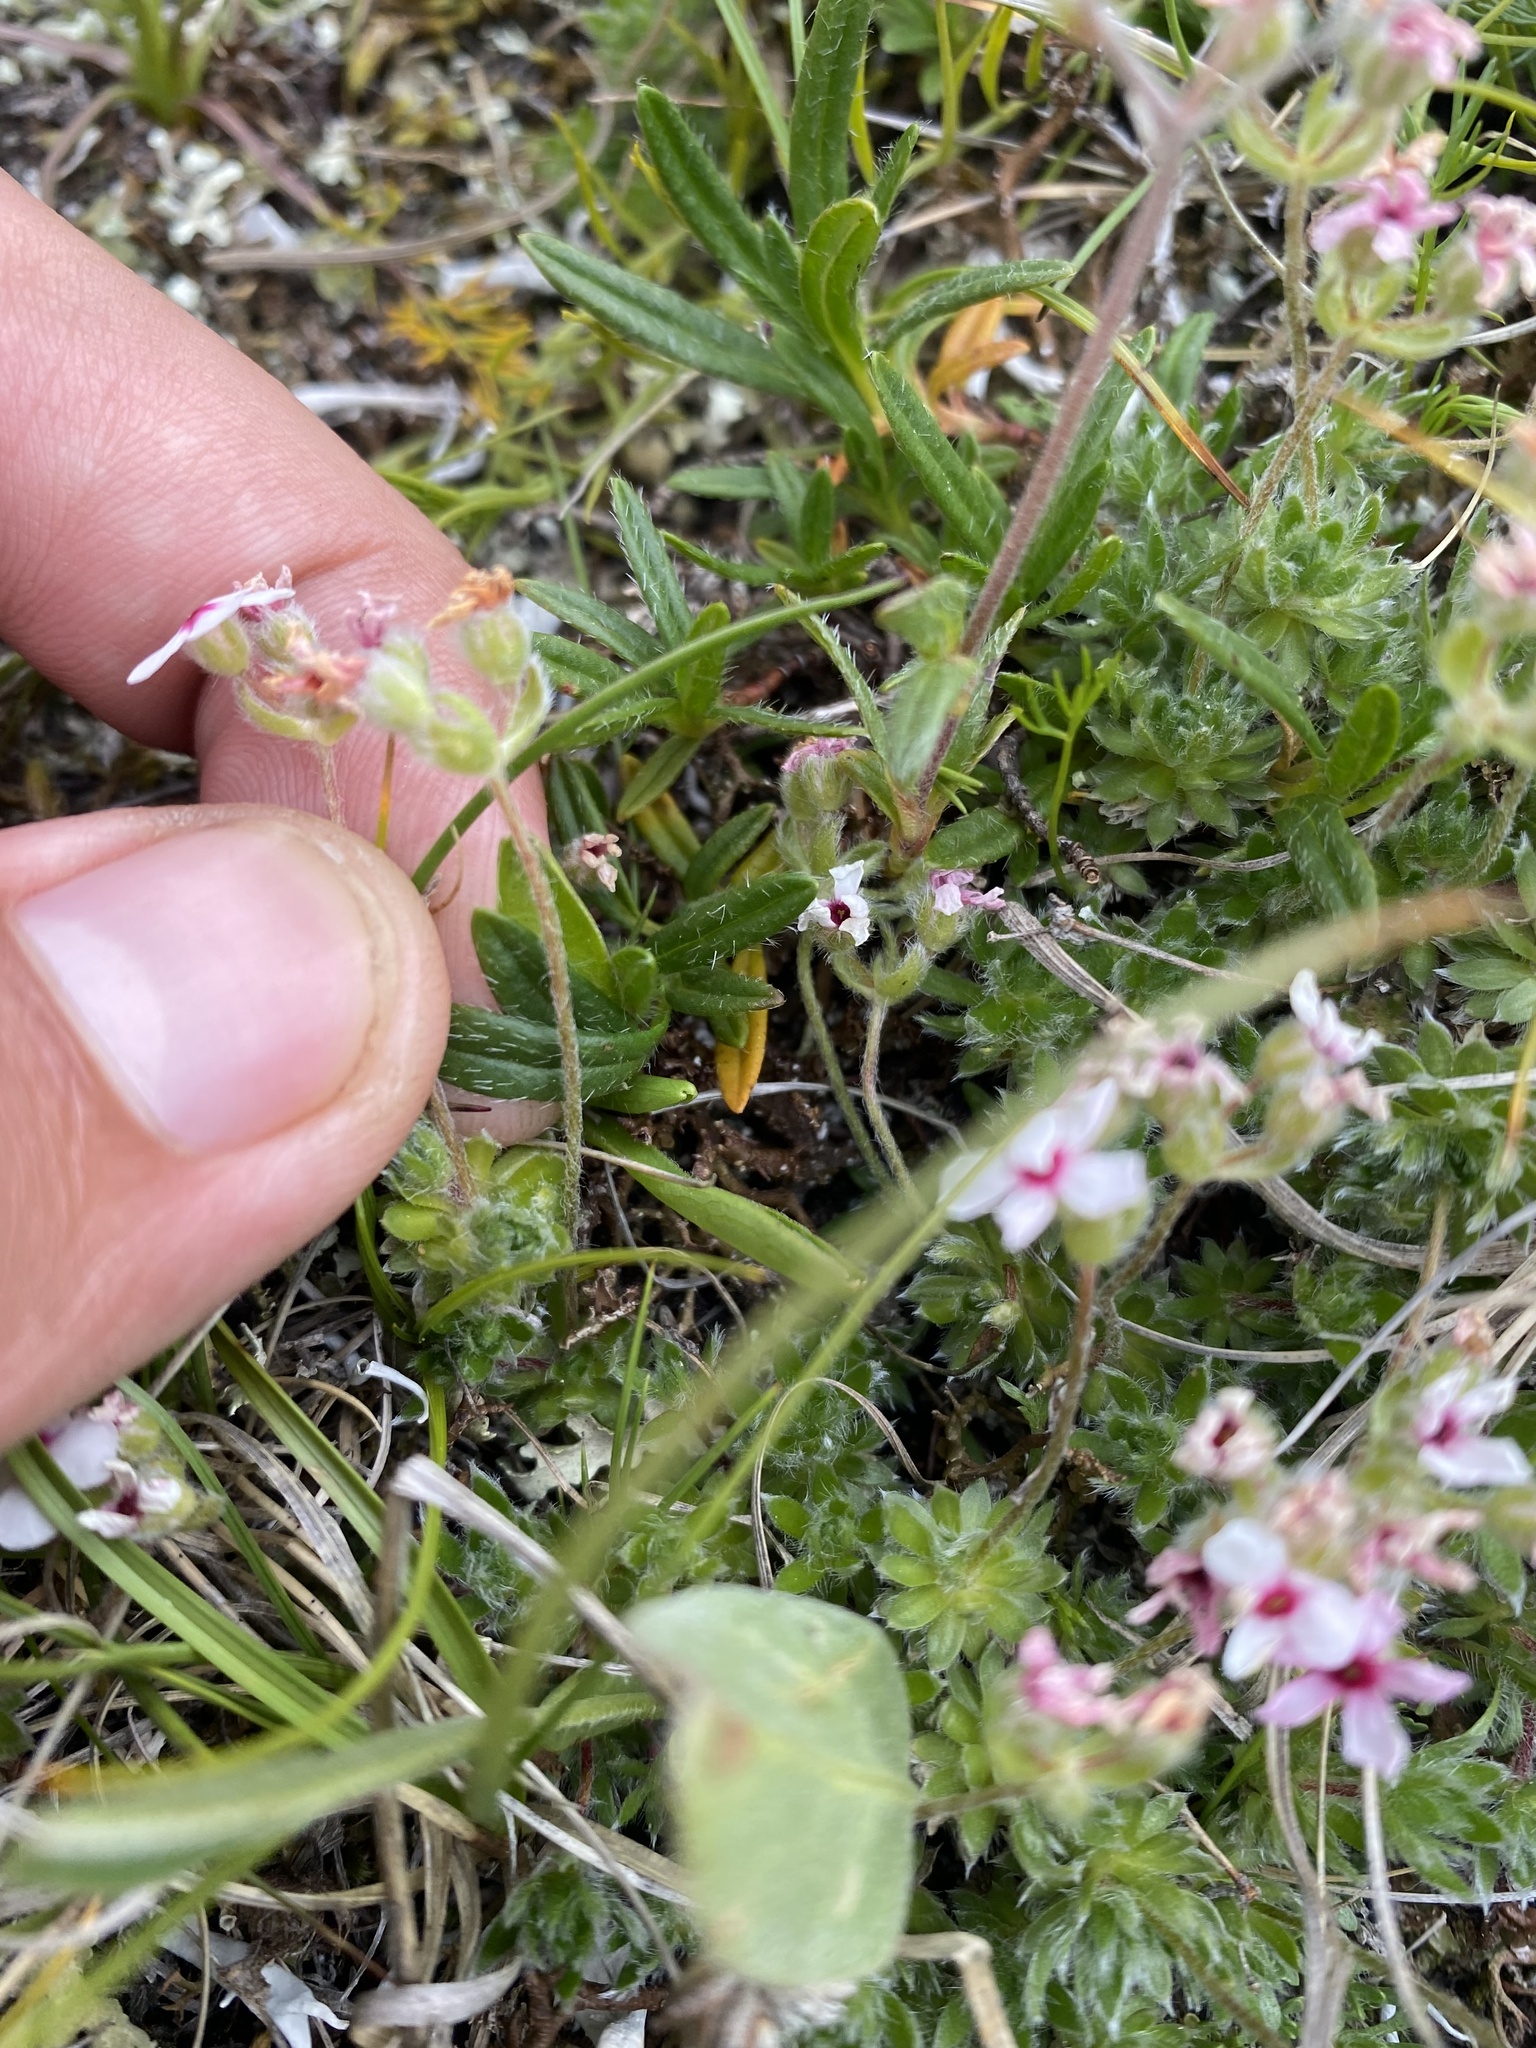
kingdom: Plantae
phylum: Tracheophyta
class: Magnoliopsida
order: Ericales
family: Primulaceae
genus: Androsace
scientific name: Androsace villosa
